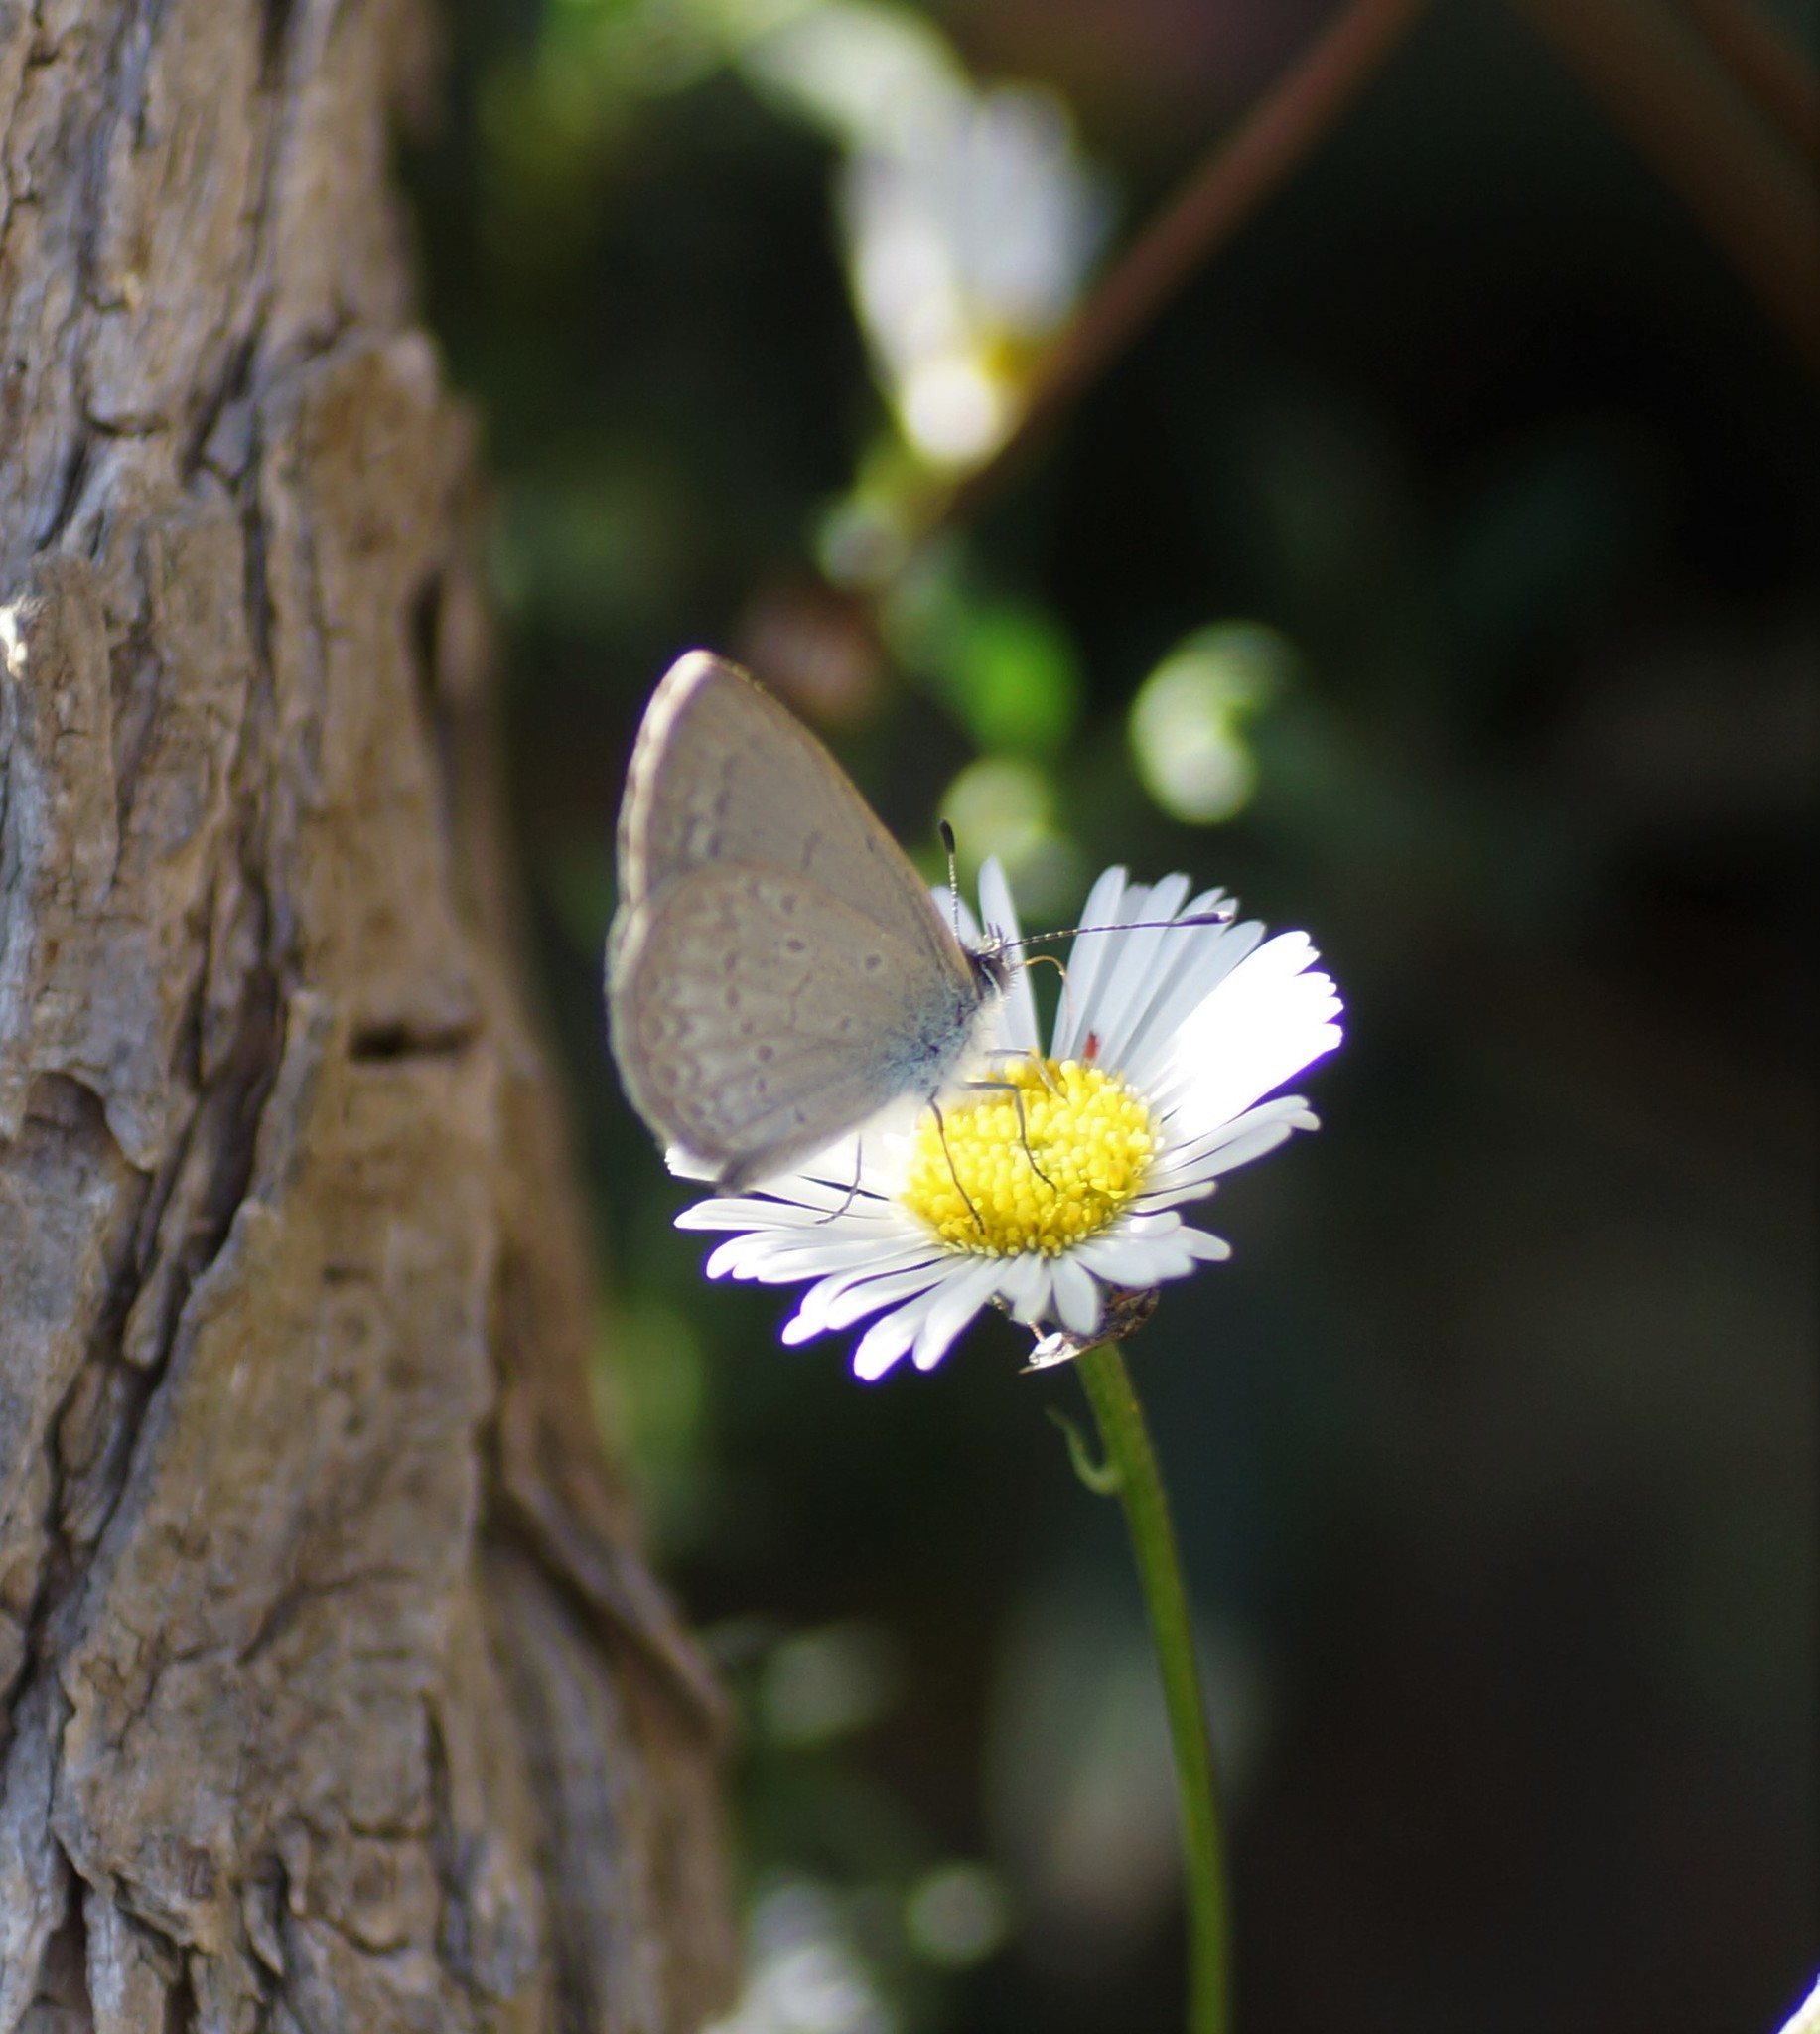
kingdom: Animalia
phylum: Arthropoda
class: Insecta
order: Lepidoptera
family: Lycaenidae
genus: Zizina
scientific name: Zizina labradus
